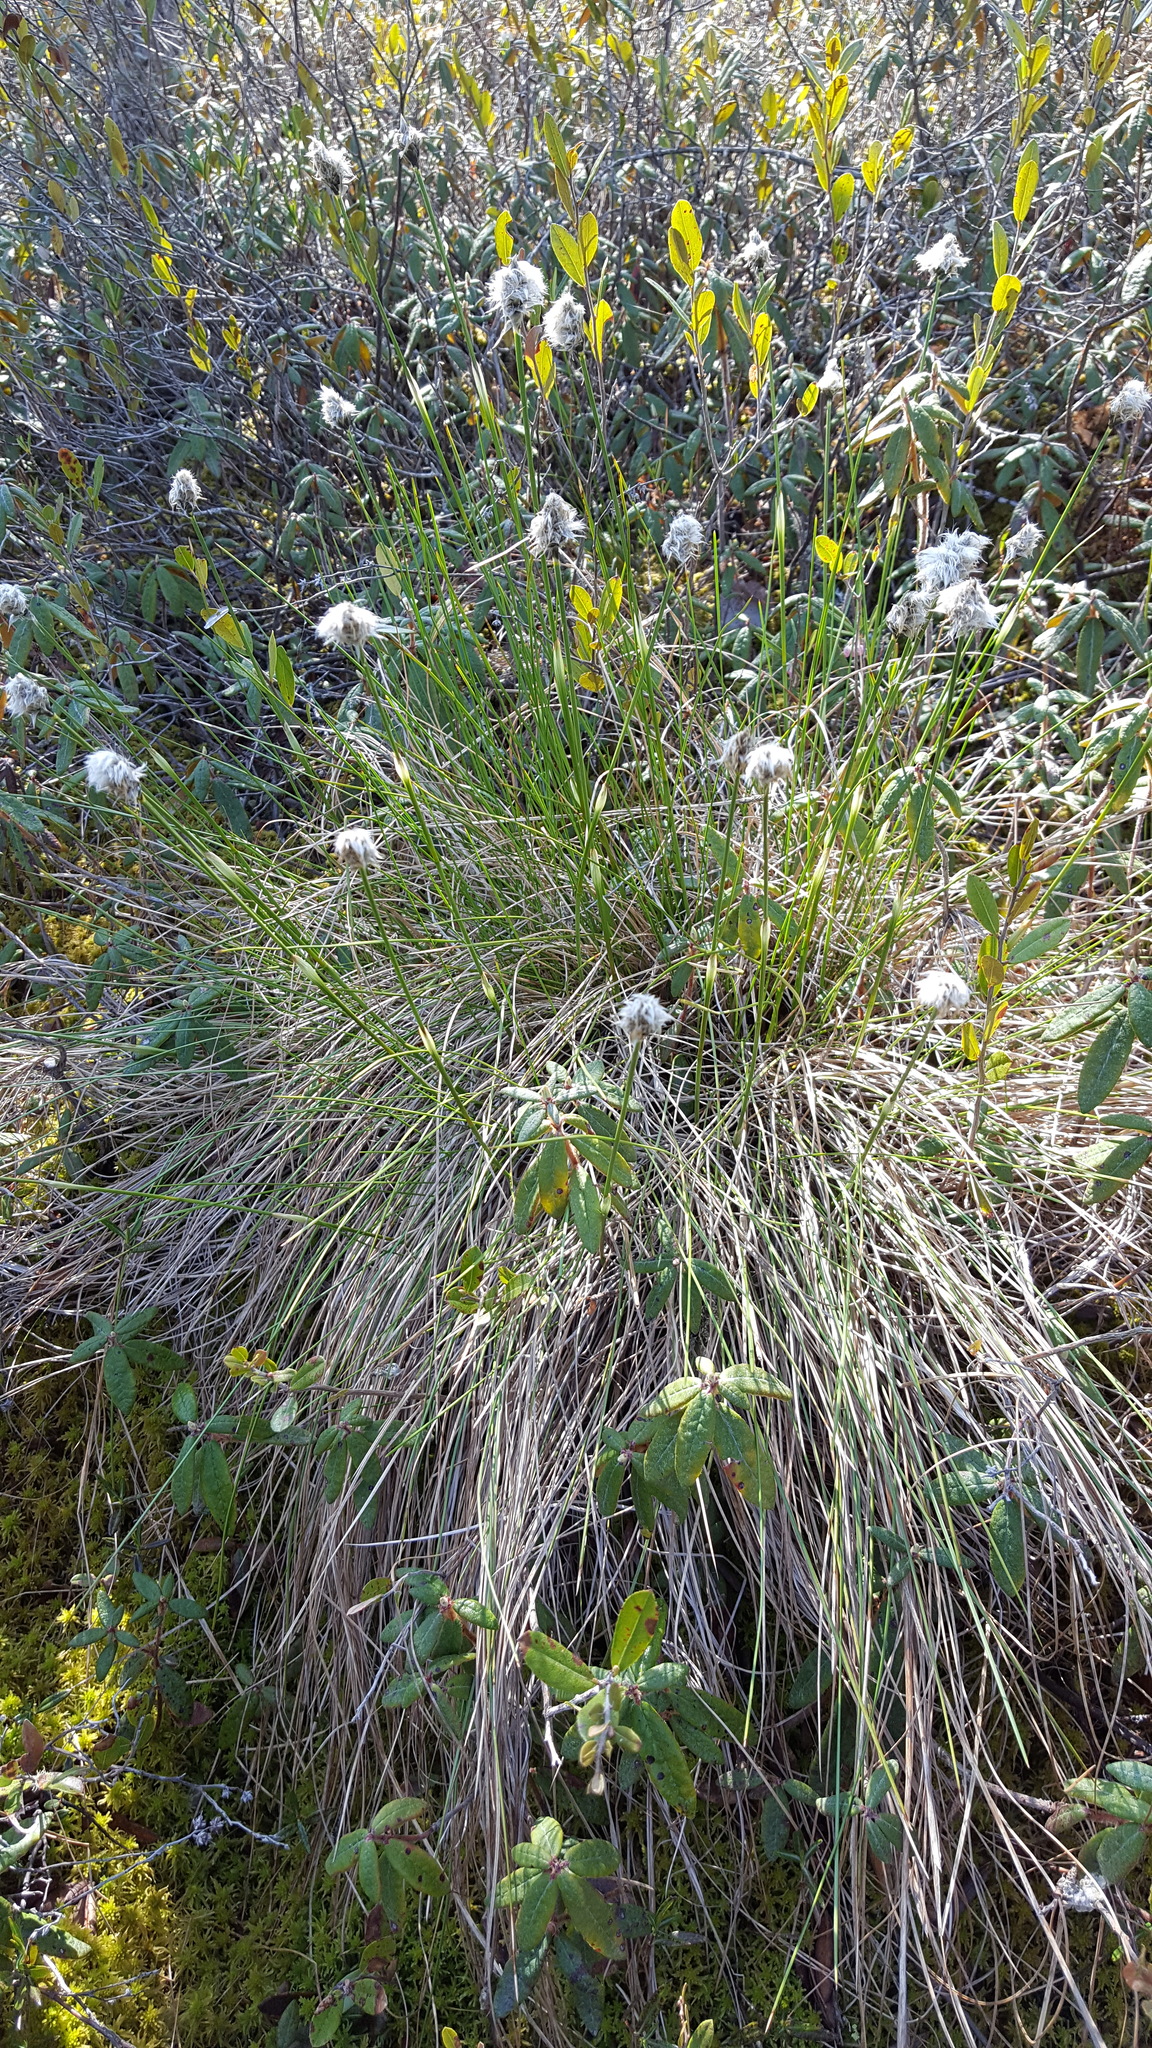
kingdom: Plantae
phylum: Tracheophyta
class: Liliopsida
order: Poales
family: Cyperaceae
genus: Eriophorum
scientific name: Eriophorum vaginatum
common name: Hare's-tail cottongrass
